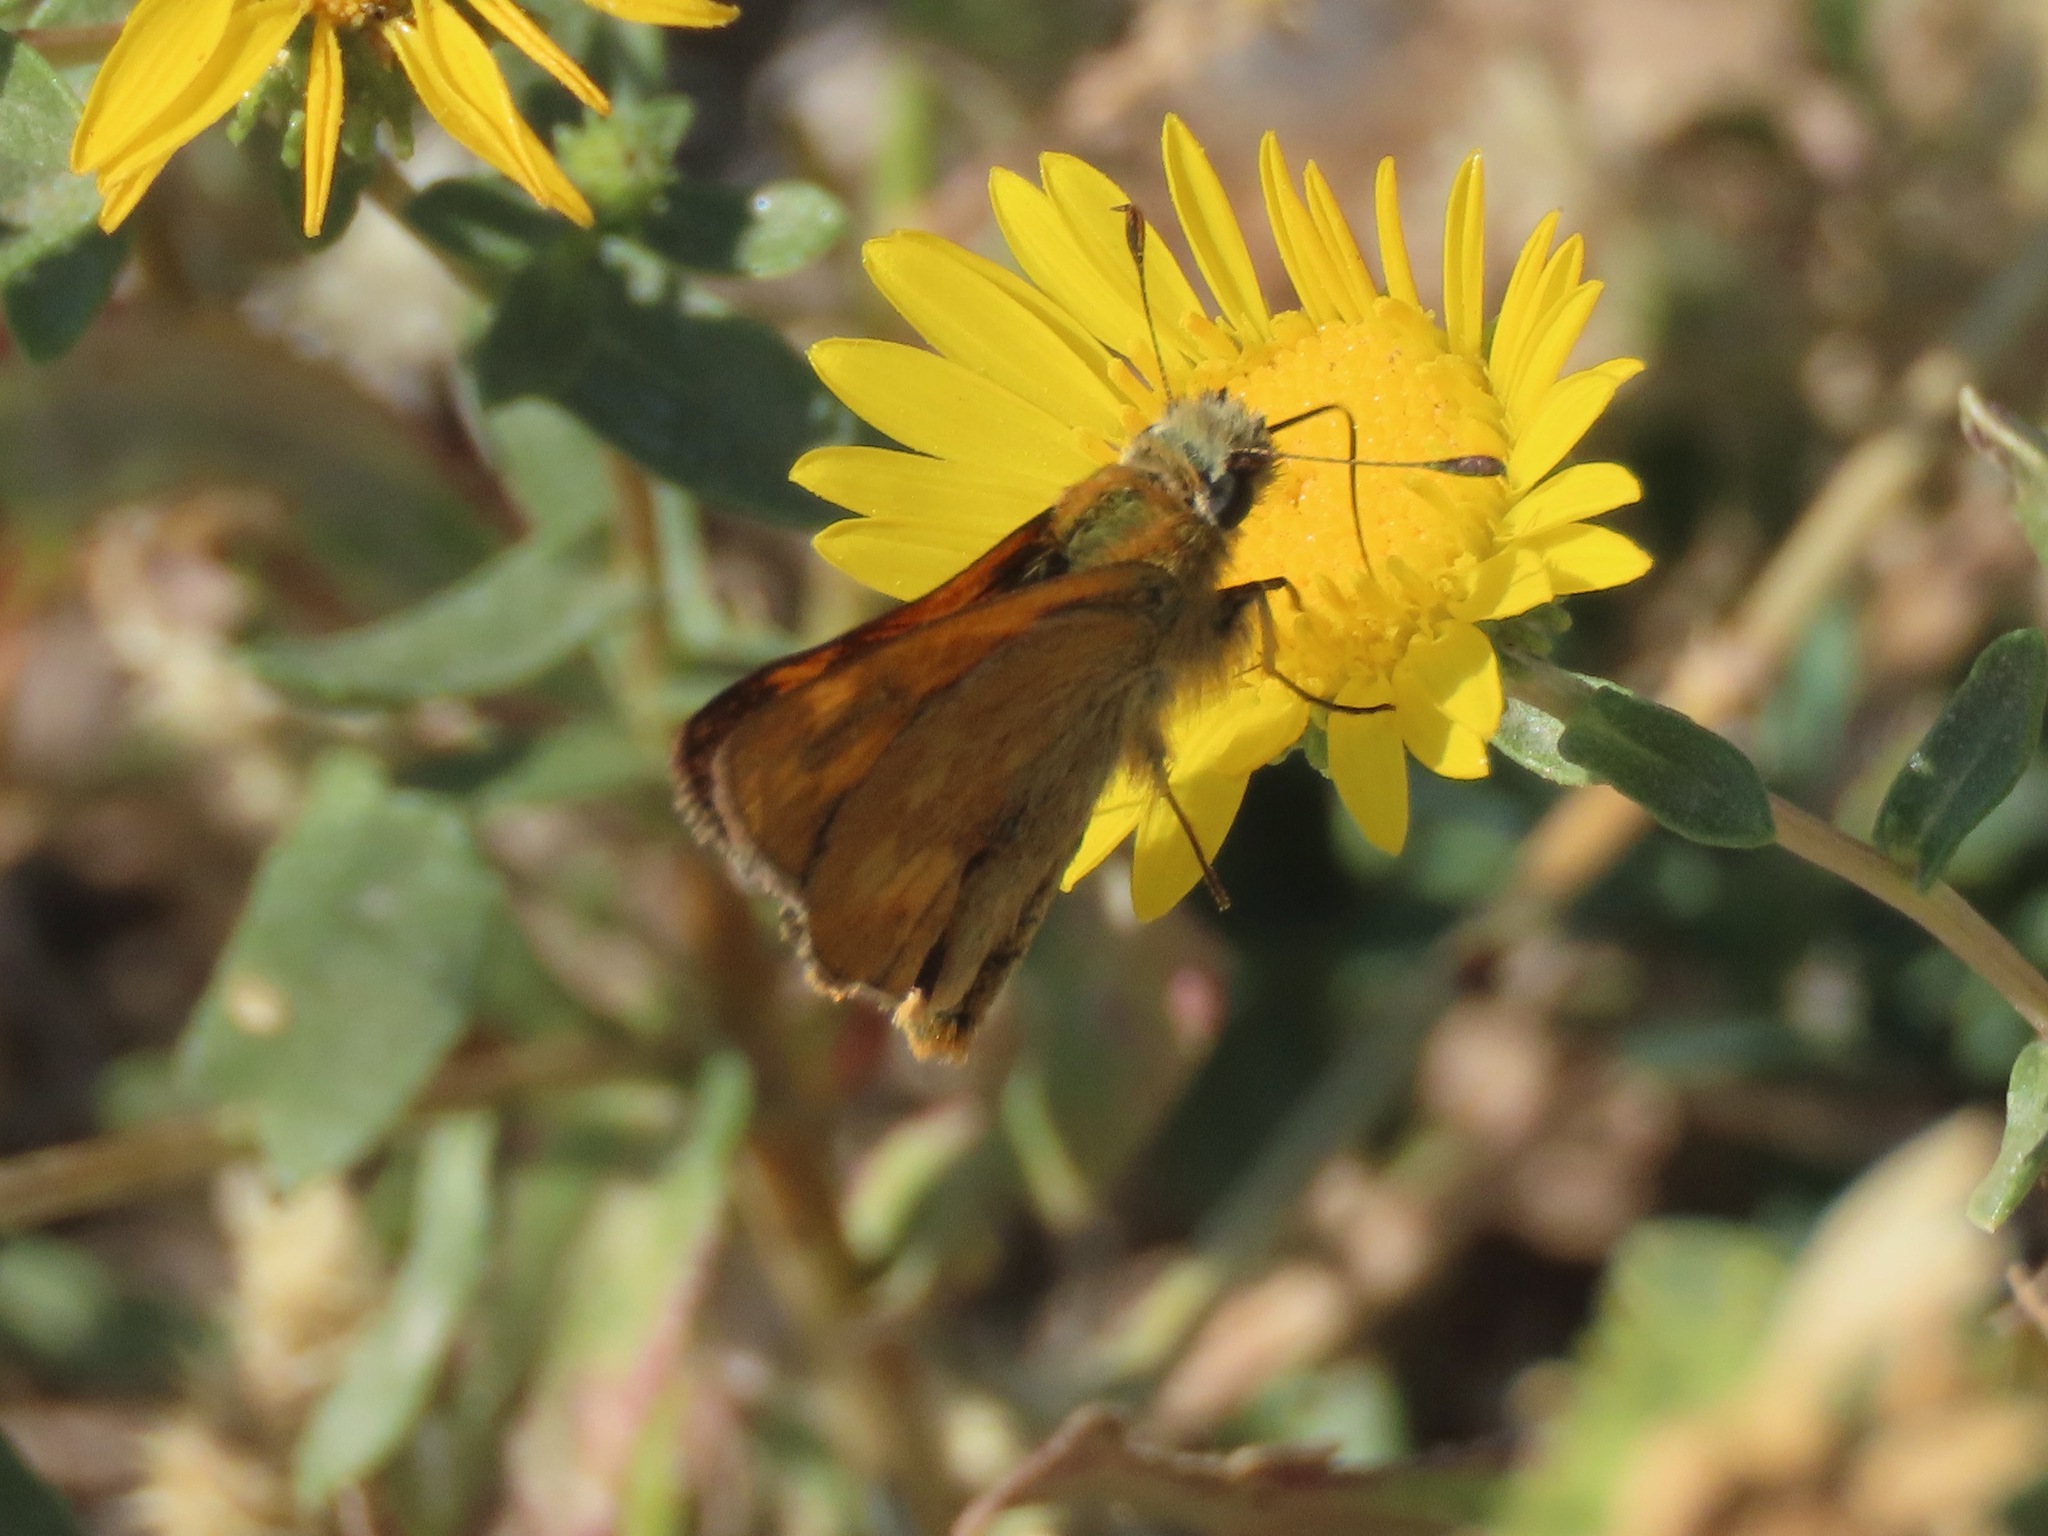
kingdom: Animalia
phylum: Arthropoda
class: Insecta
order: Lepidoptera
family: Hesperiidae
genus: Ochlodes
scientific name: Ochlodes sylvanoides
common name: Woodland skipper
